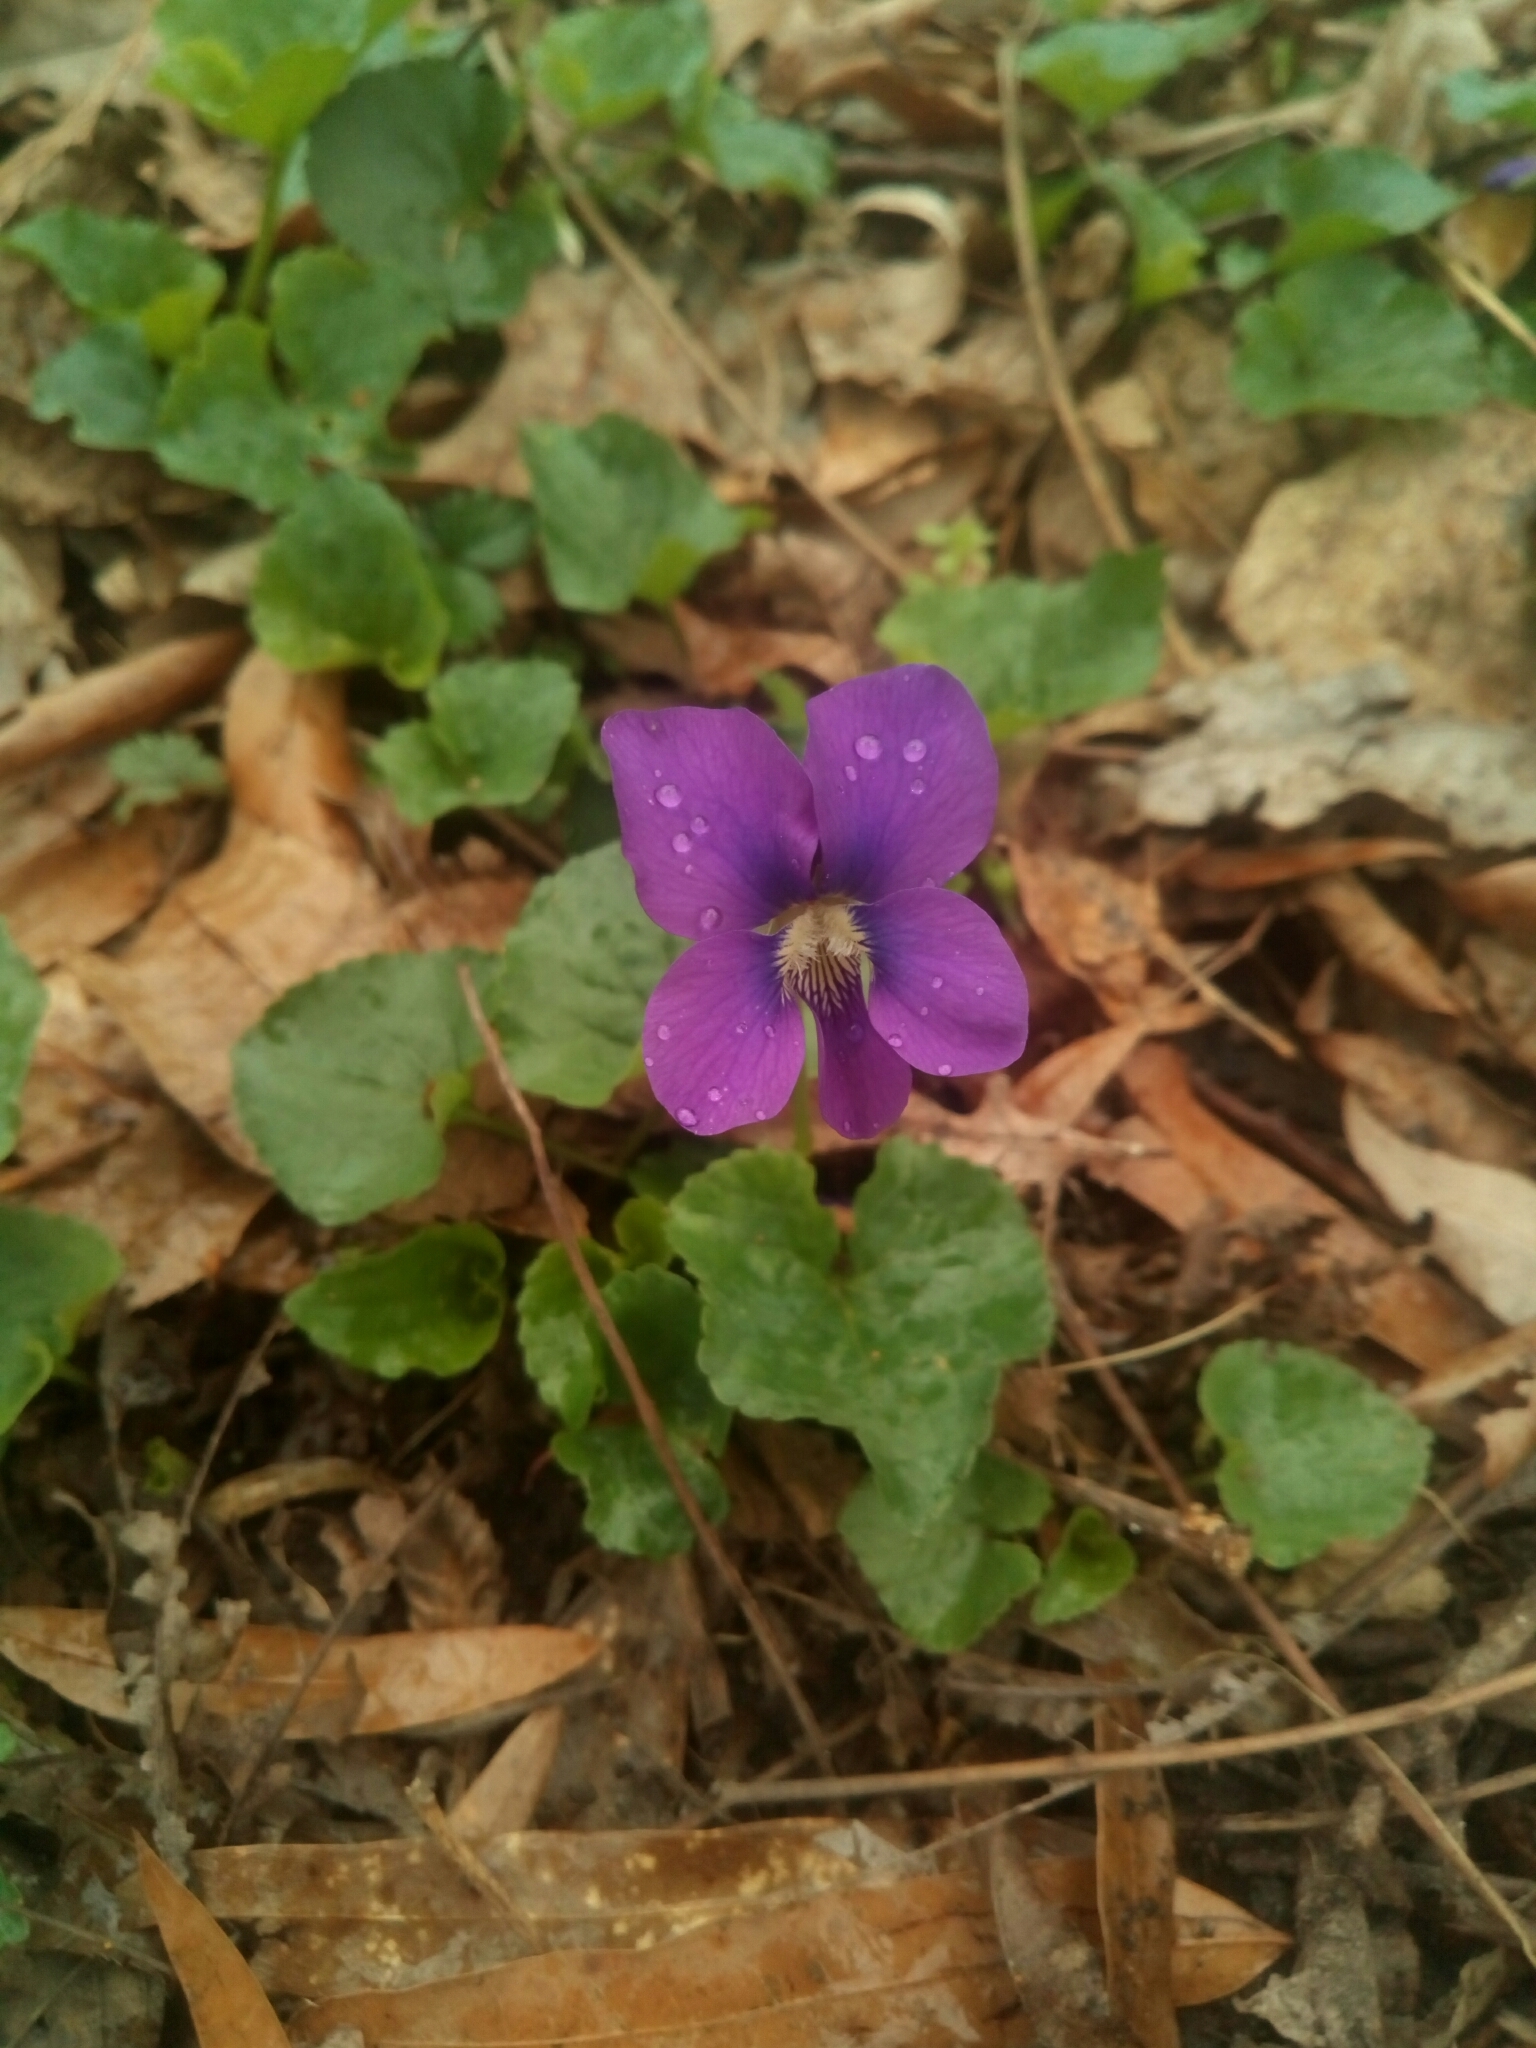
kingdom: Plantae
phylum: Tracheophyta
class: Magnoliopsida
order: Malpighiales
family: Violaceae
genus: Viola
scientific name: Viola sororia
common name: Dooryard violet
